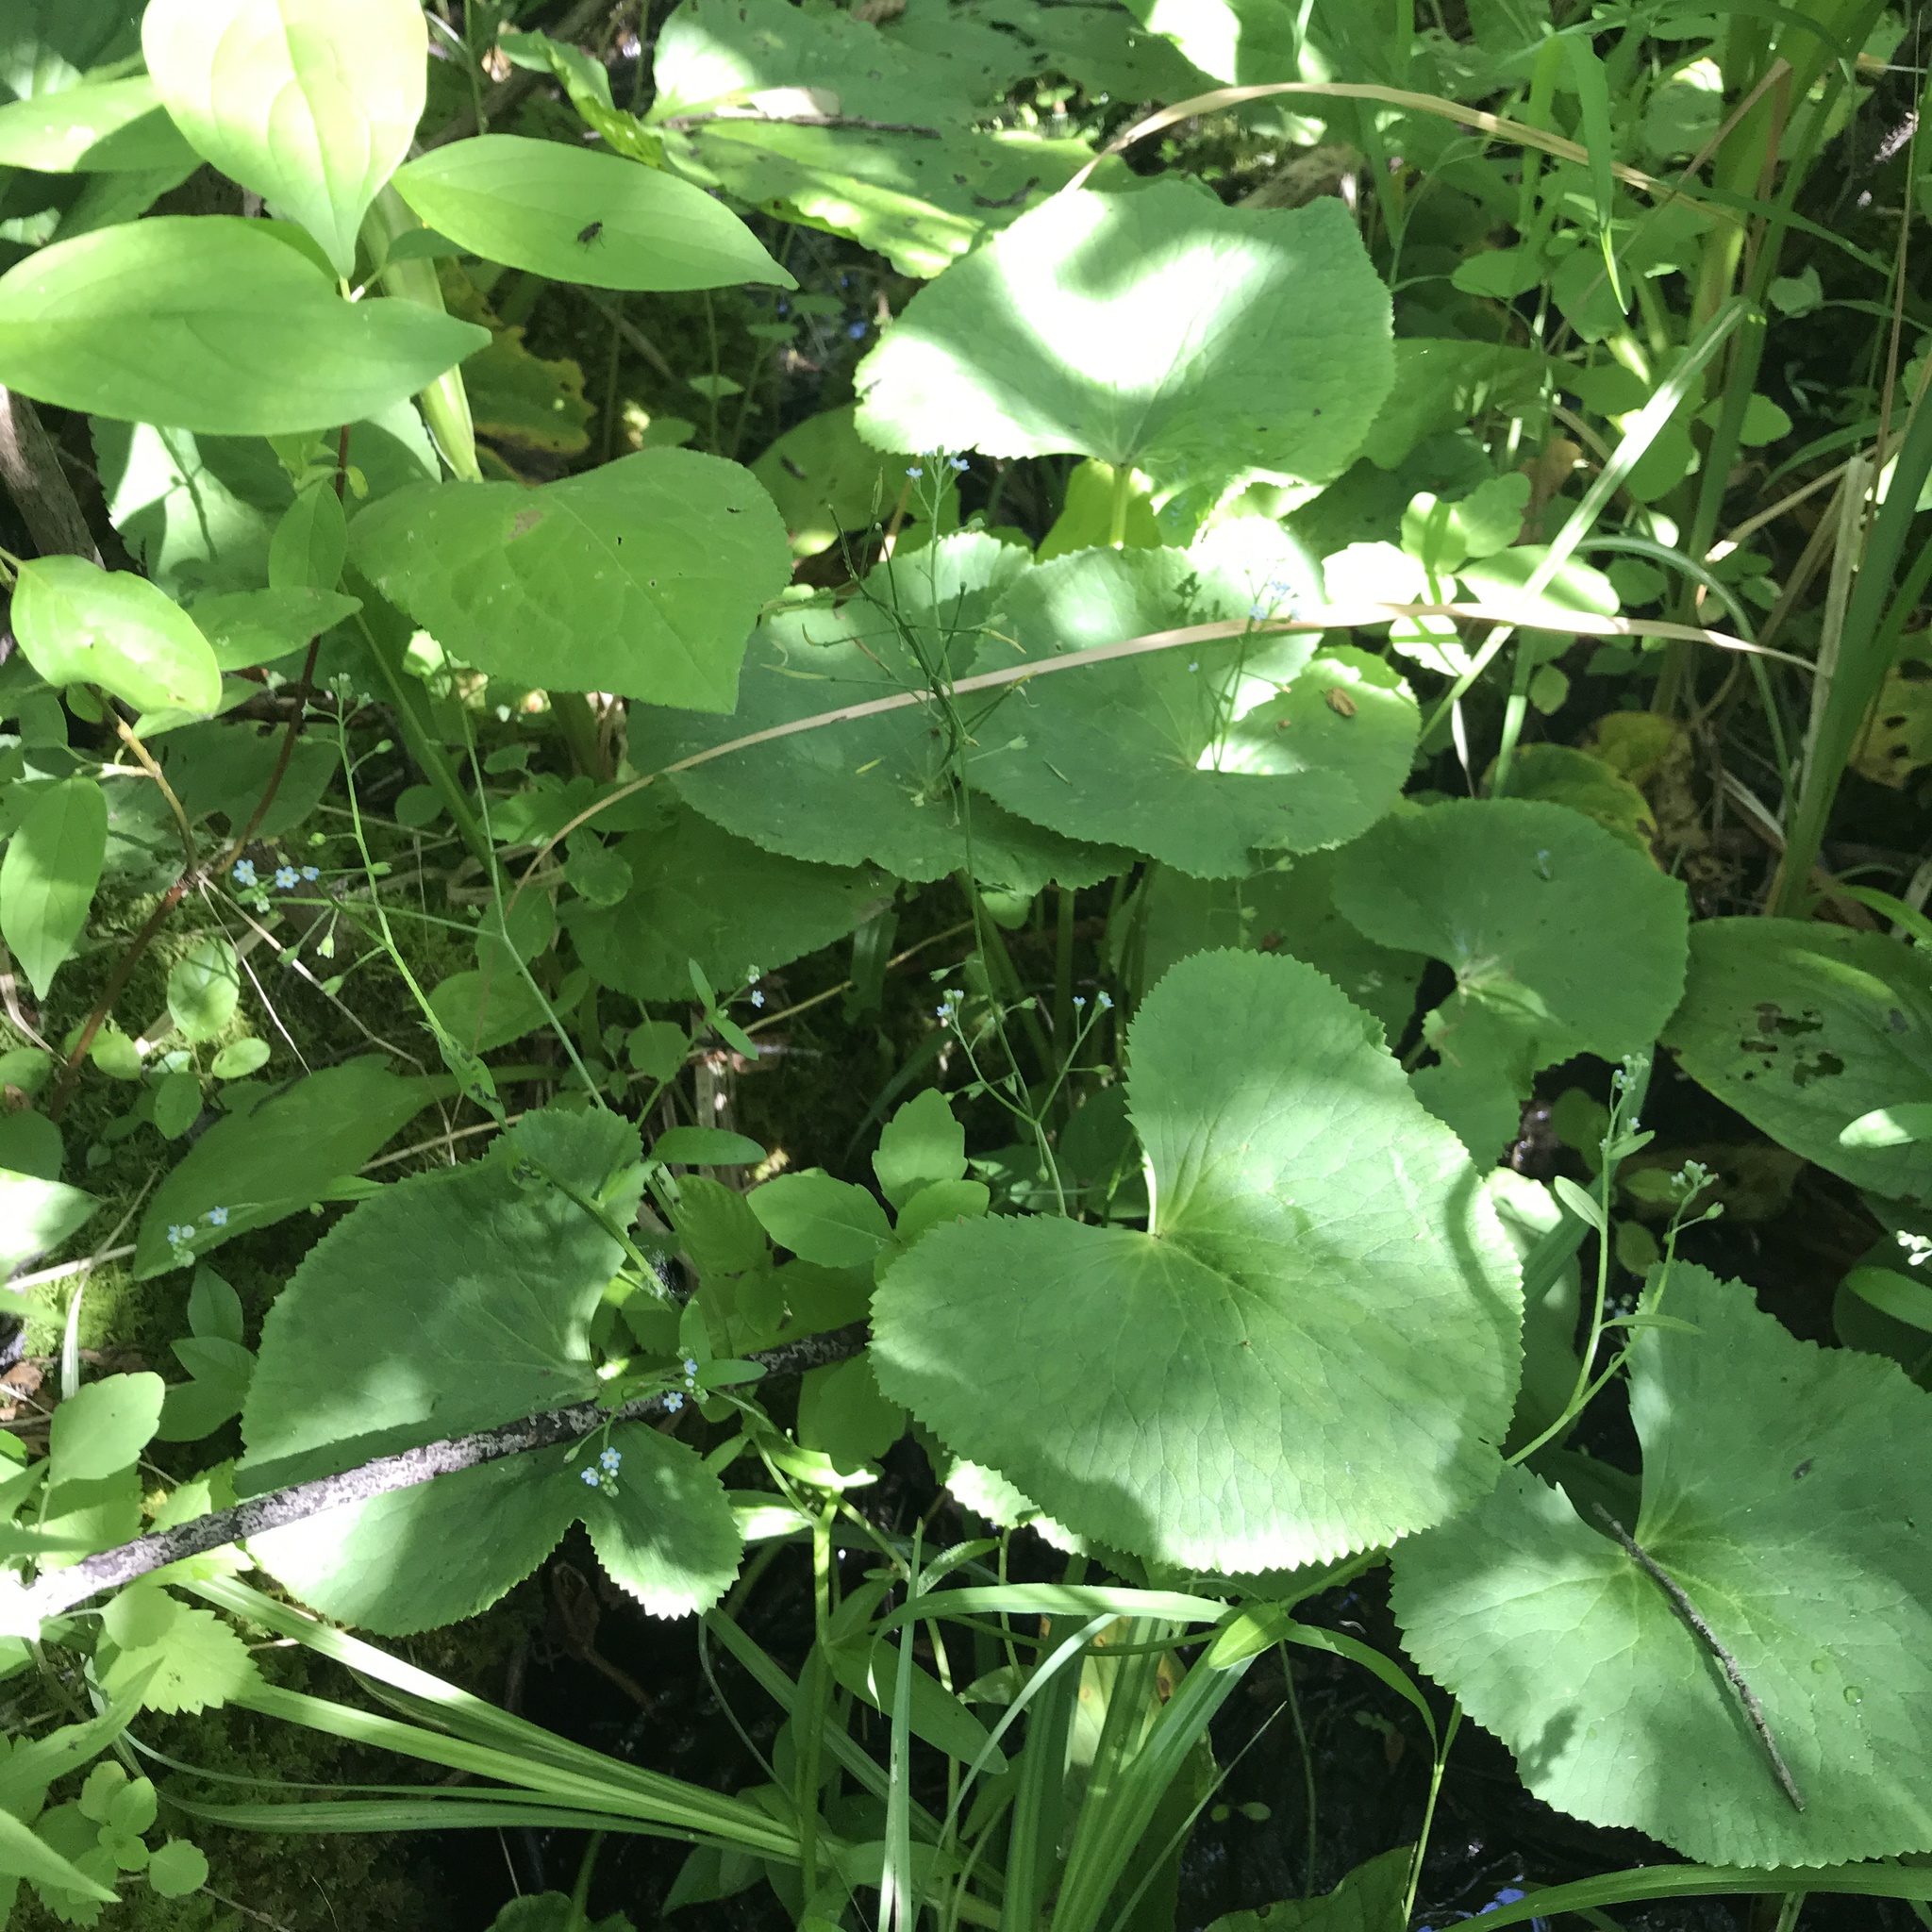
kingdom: Plantae
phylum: Tracheophyta
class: Magnoliopsida
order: Ranunculales
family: Ranunculaceae
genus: Caltha
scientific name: Caltha palustris
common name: Marsh marigold
